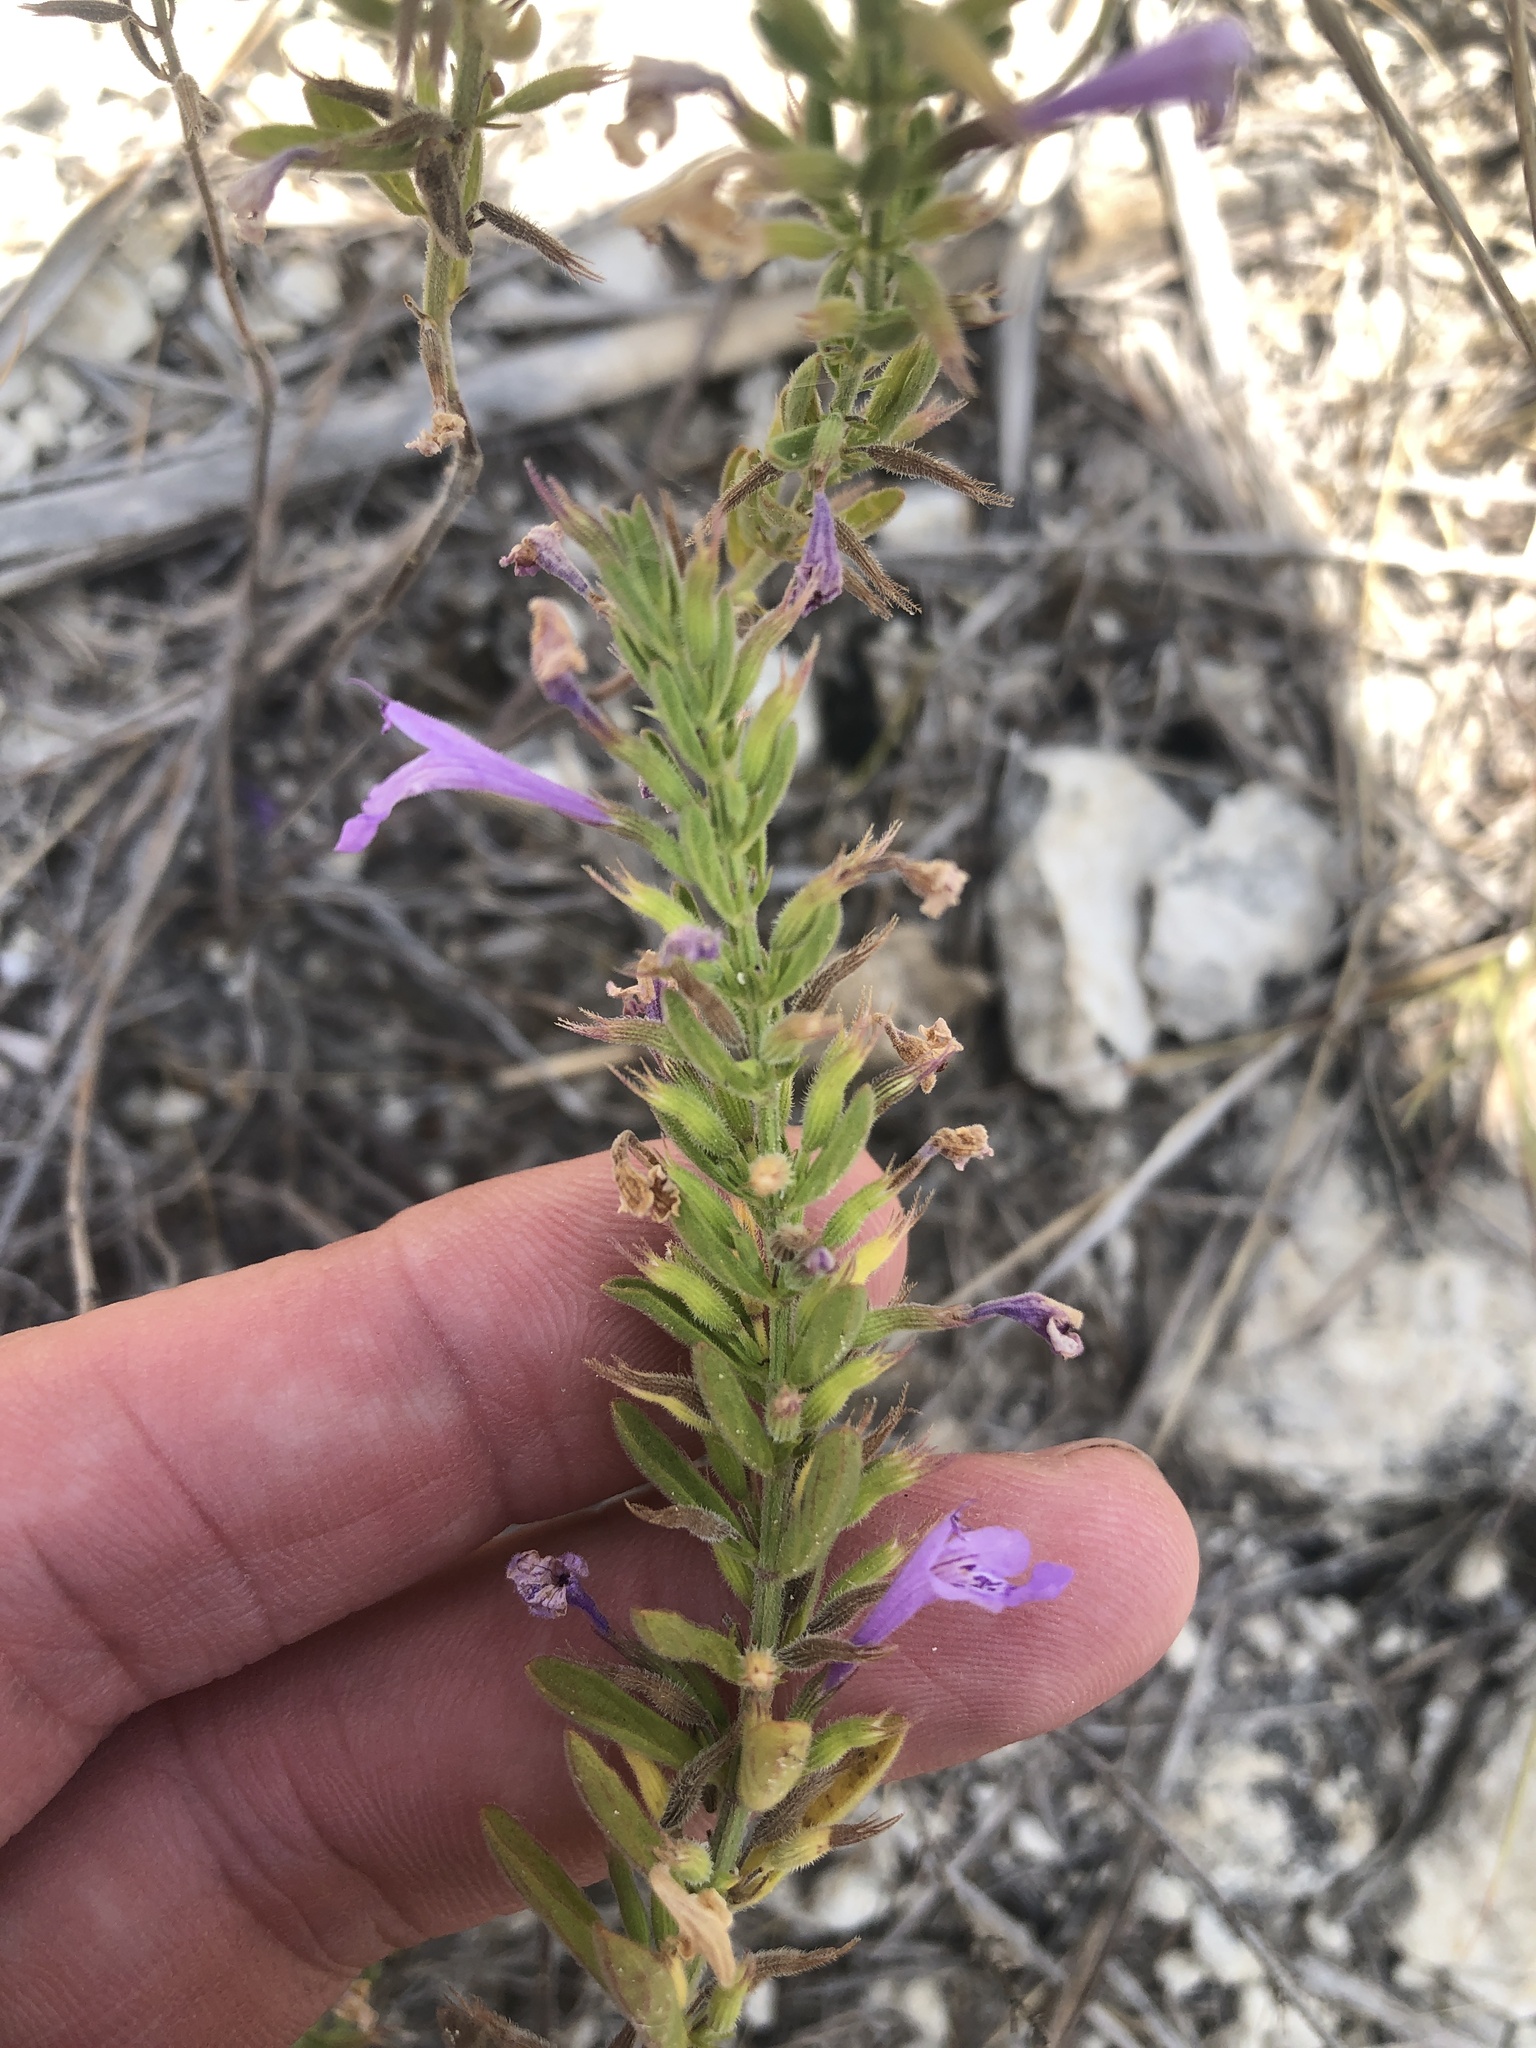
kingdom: Plantae
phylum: Tracheophyta
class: Magnoliopsida
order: Lamiales
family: Lamiaceae
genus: Hedeoma
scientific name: Hedeoma reverchonii
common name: Reverchon's false penny-royal
